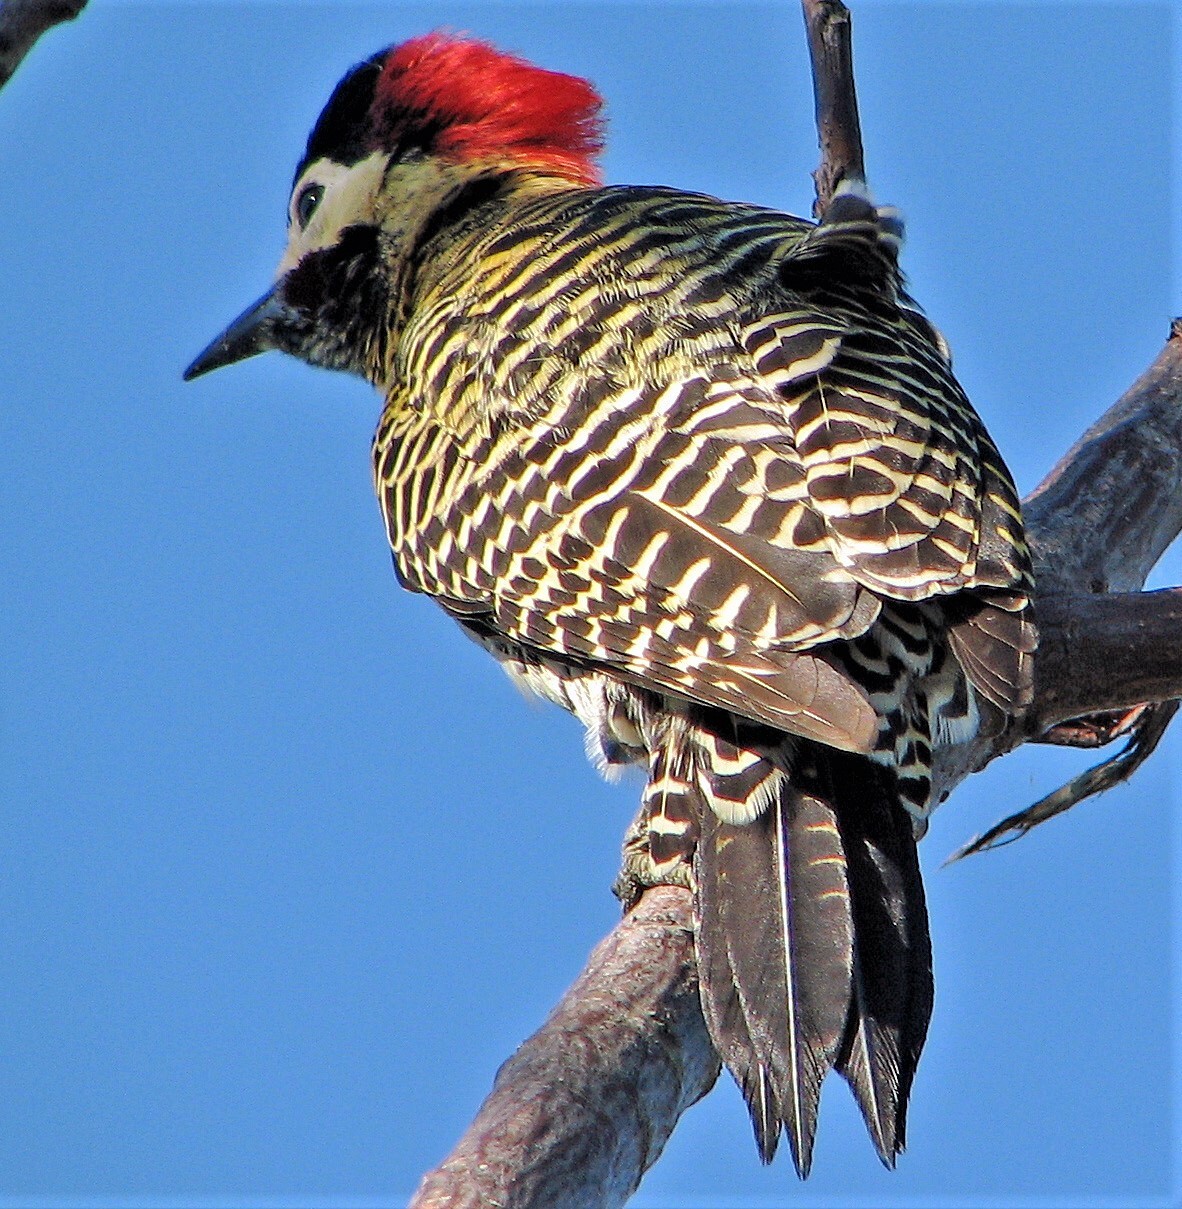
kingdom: Animalia
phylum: Chordata
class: Aves
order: Piciformes
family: Picidae
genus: Colaptes
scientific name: Colaptes melanochloros
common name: Green-barred woodpecker
